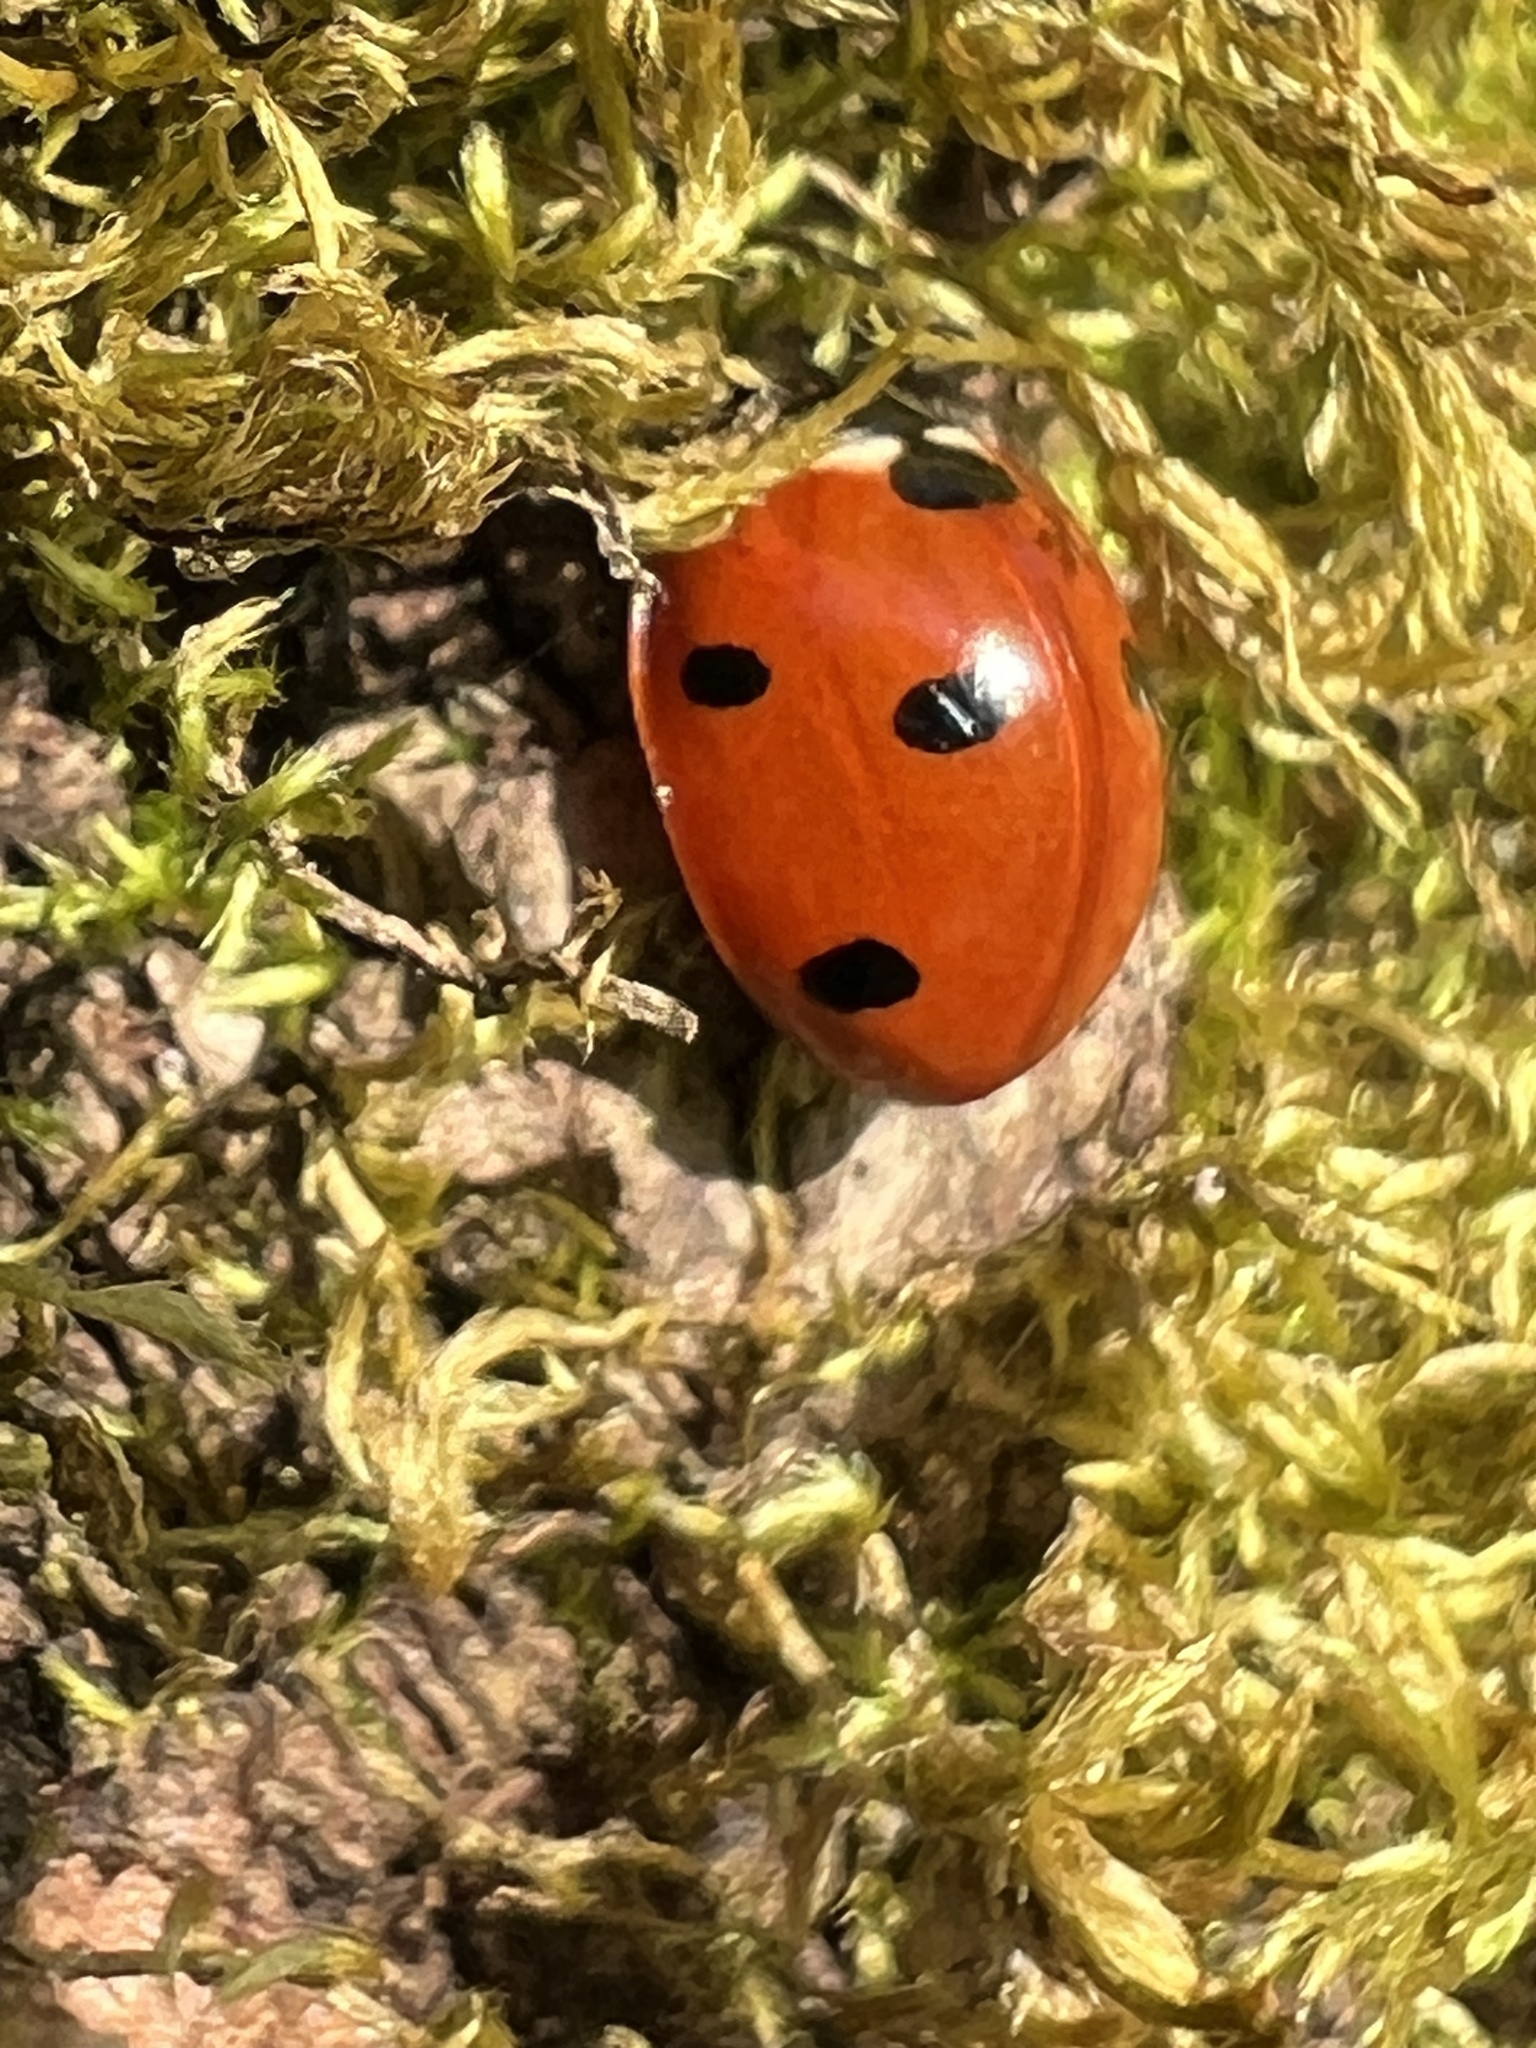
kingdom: Animalia
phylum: Arthropoda
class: Insecta
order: Coleoptera
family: Coccinellidae
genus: Coccinella
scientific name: Coccinella septempunctata
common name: Sevenspotted lady beetle
